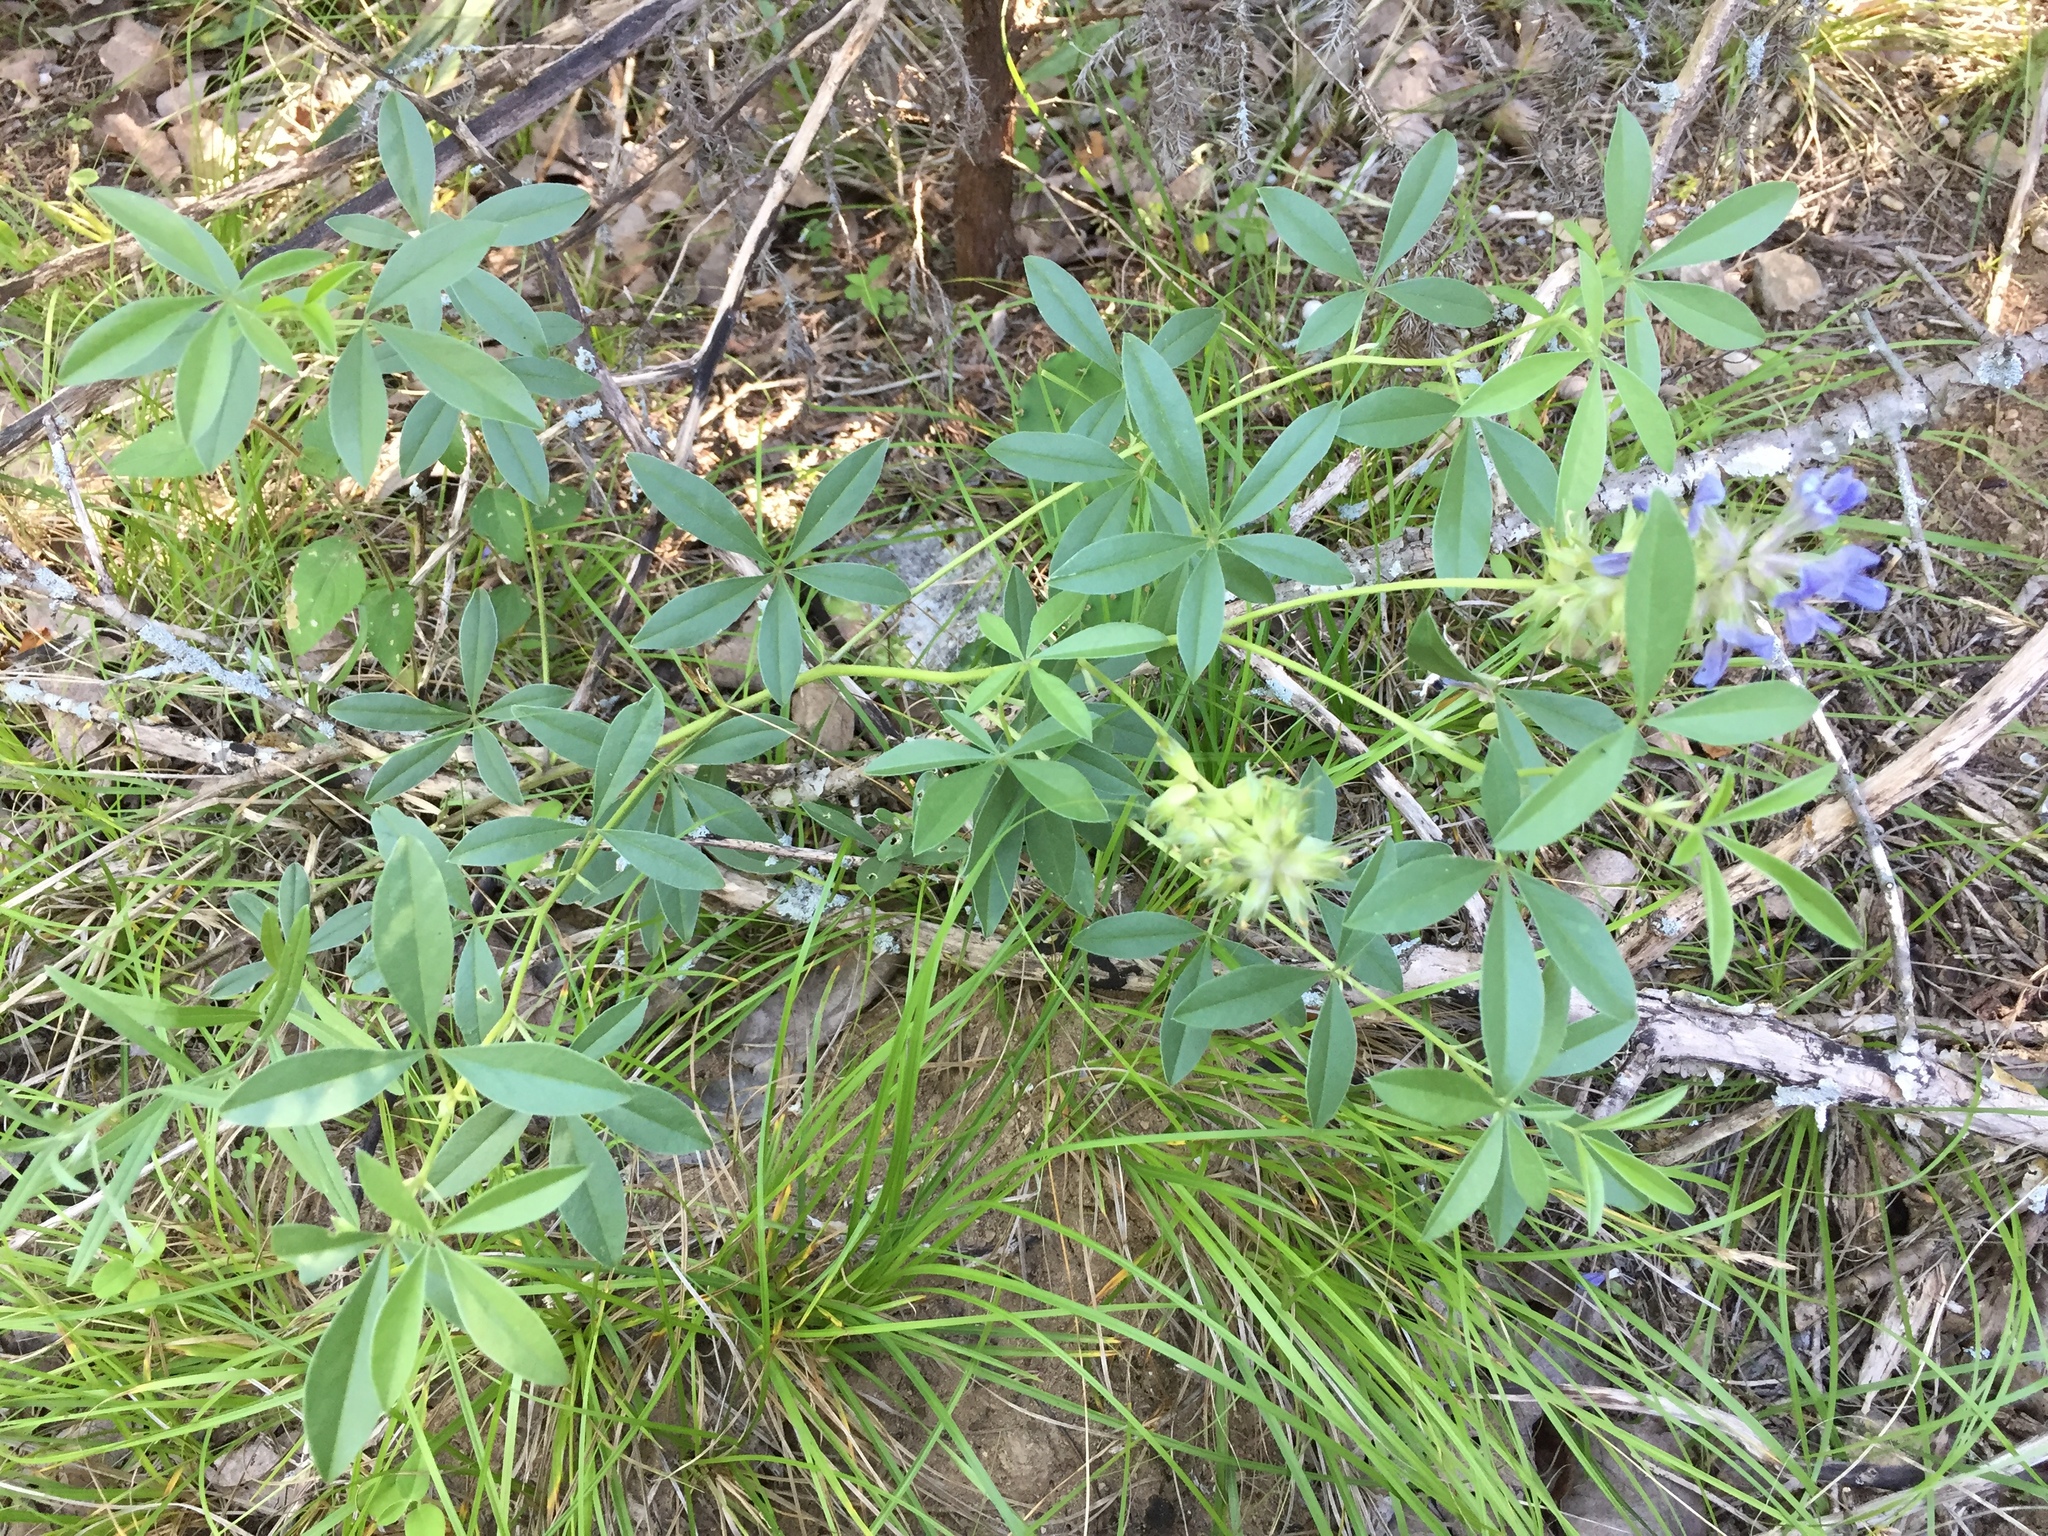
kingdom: Plantae
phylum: Tracheophyta
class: Magnoliopsida
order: Fabales
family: Fabaceae
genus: Pediomelum
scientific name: Pediomelum cuspidatum
